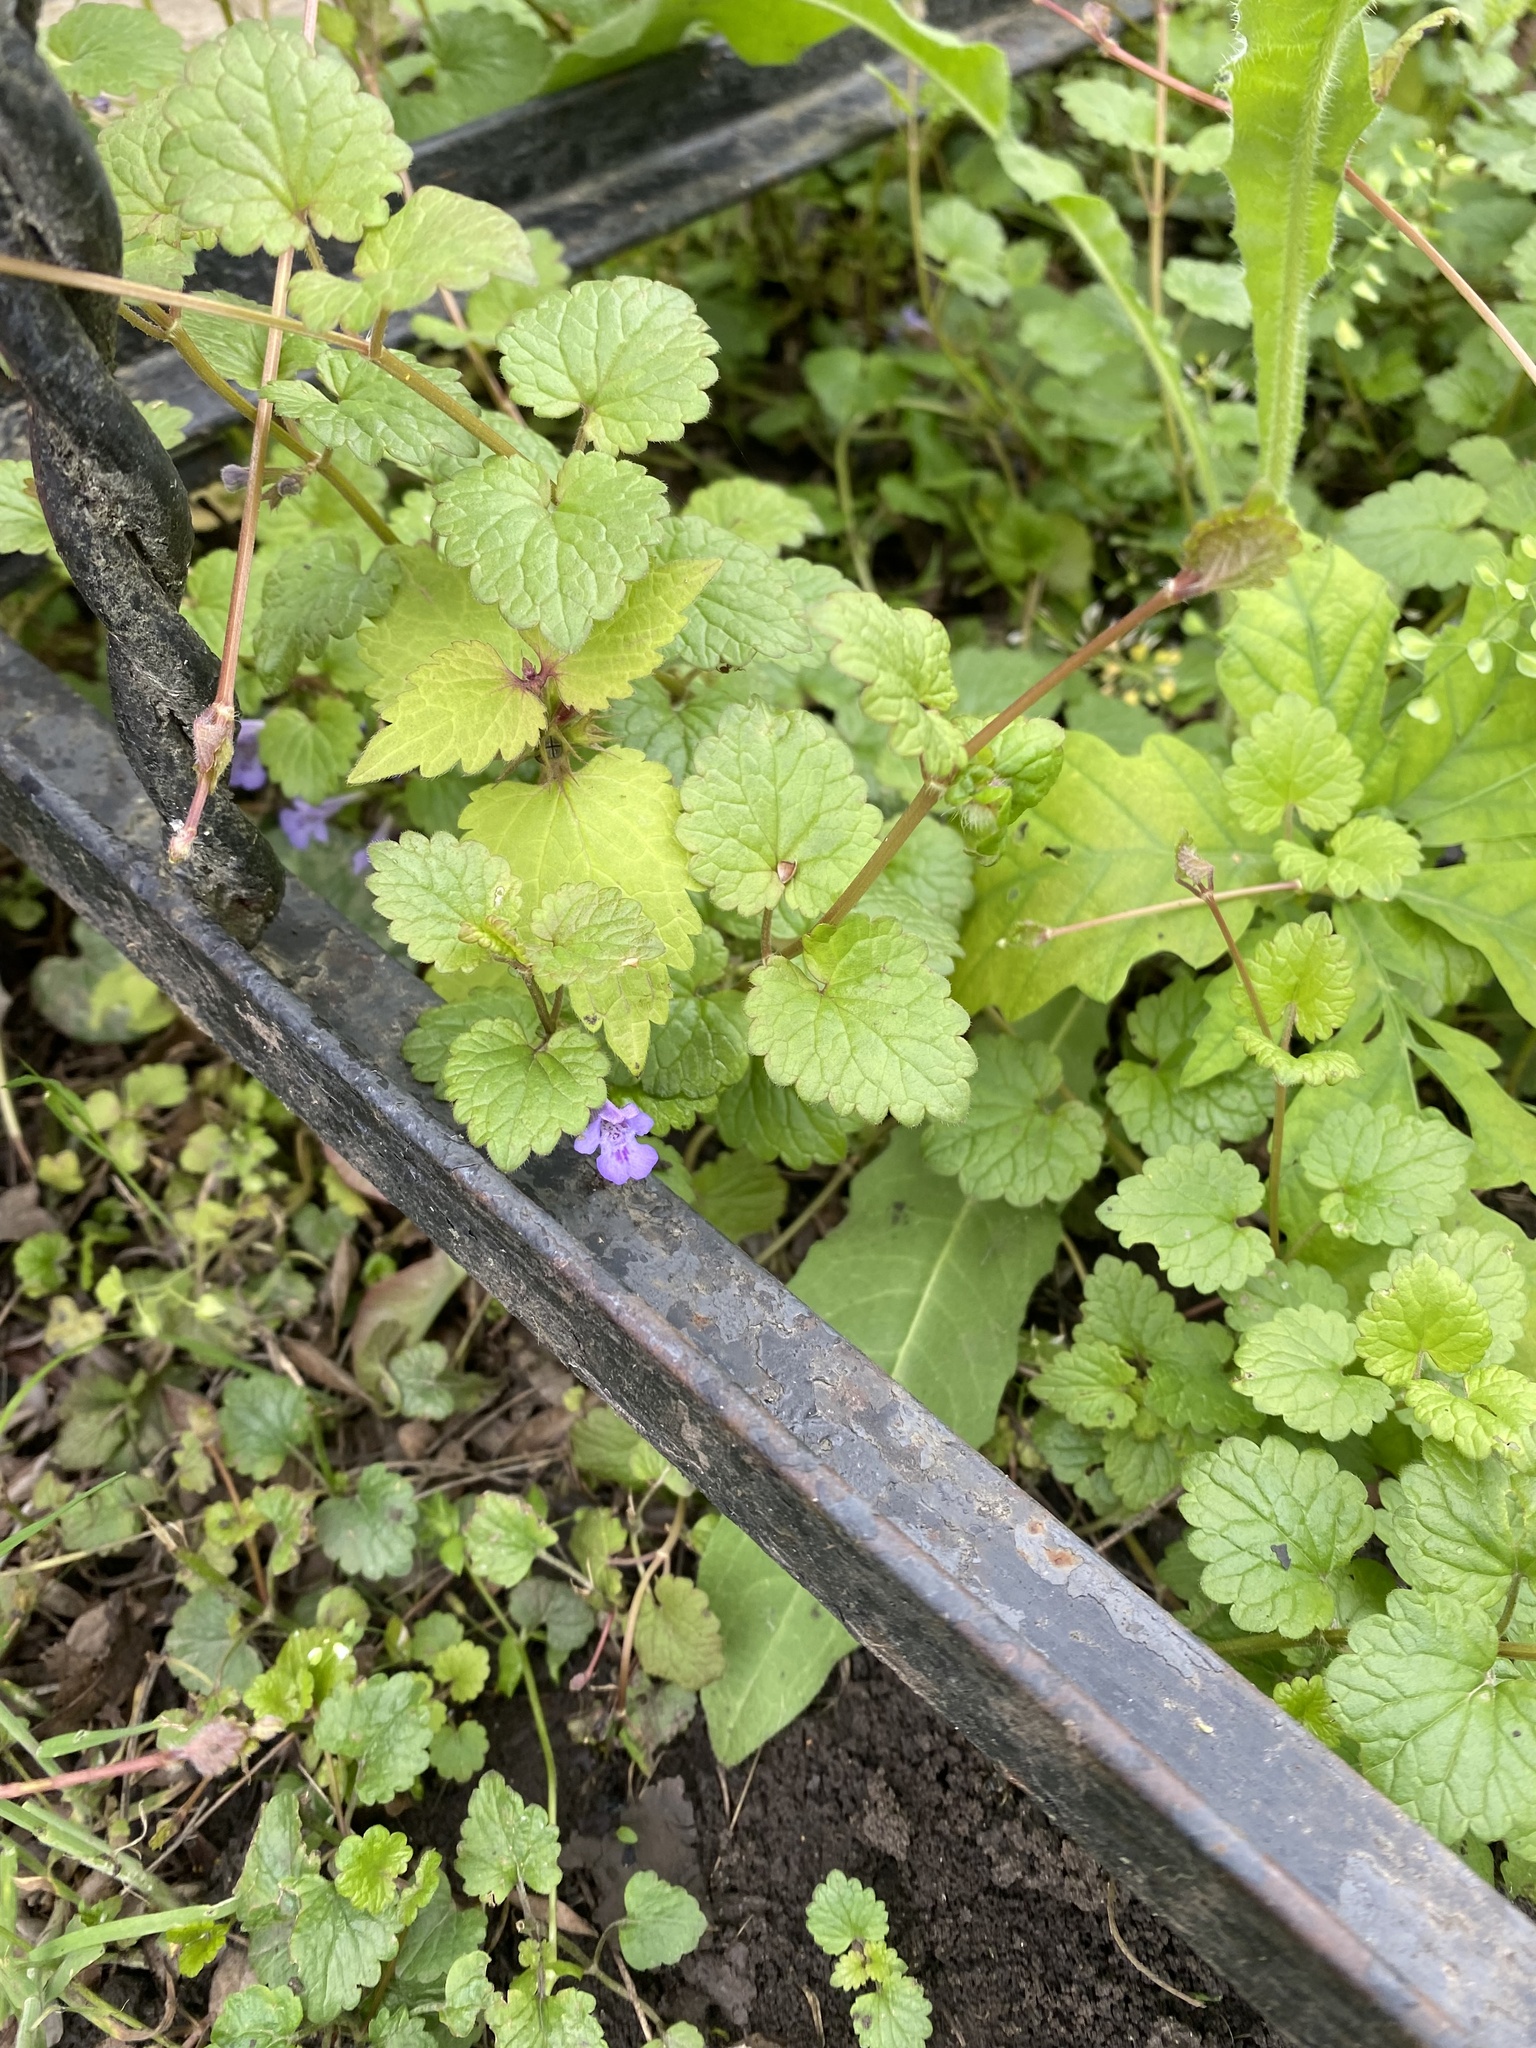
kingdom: Plantae
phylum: Tracheophyta
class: Magnoliopsida
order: Lamiales
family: Lamiaceae
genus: Glechoma
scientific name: Glechoma hederacea
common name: Ground ivy
